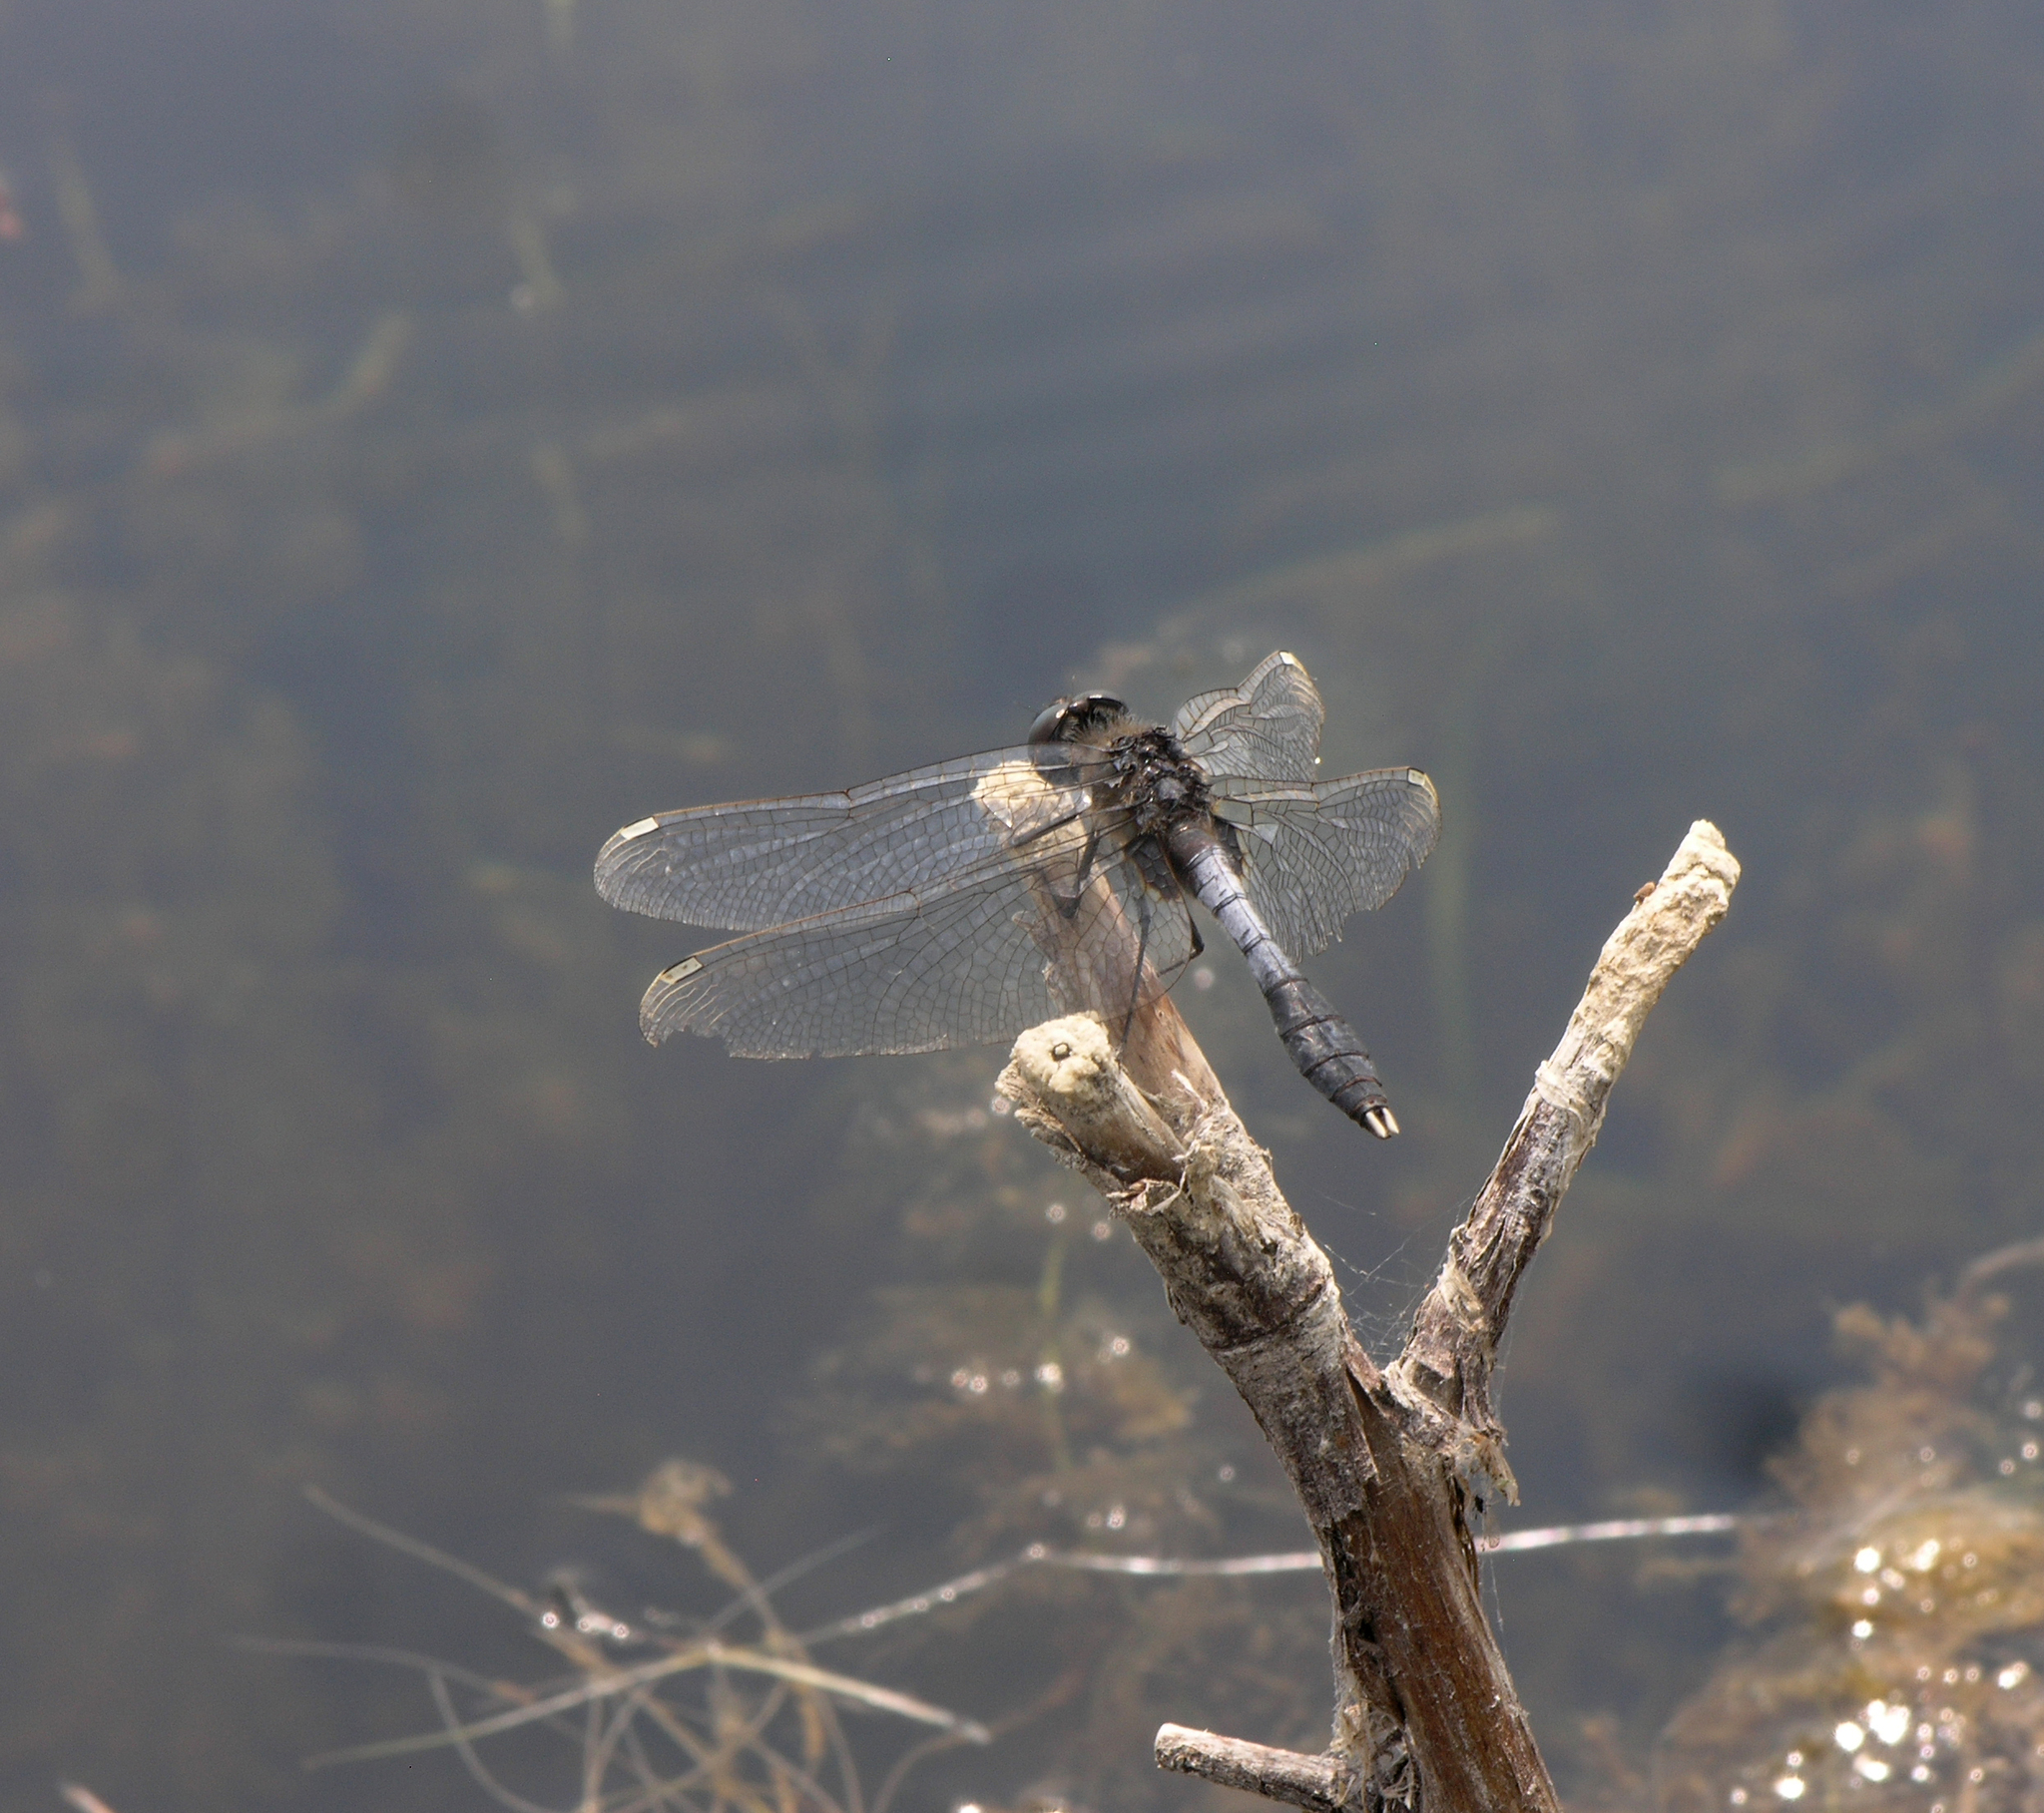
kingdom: Animalia
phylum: Arthropoda
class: Insecta
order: Odonata
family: Libellulidae
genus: Leucorrhinia
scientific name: Leucorrhinia caudalis
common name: Lilypad whiteface
